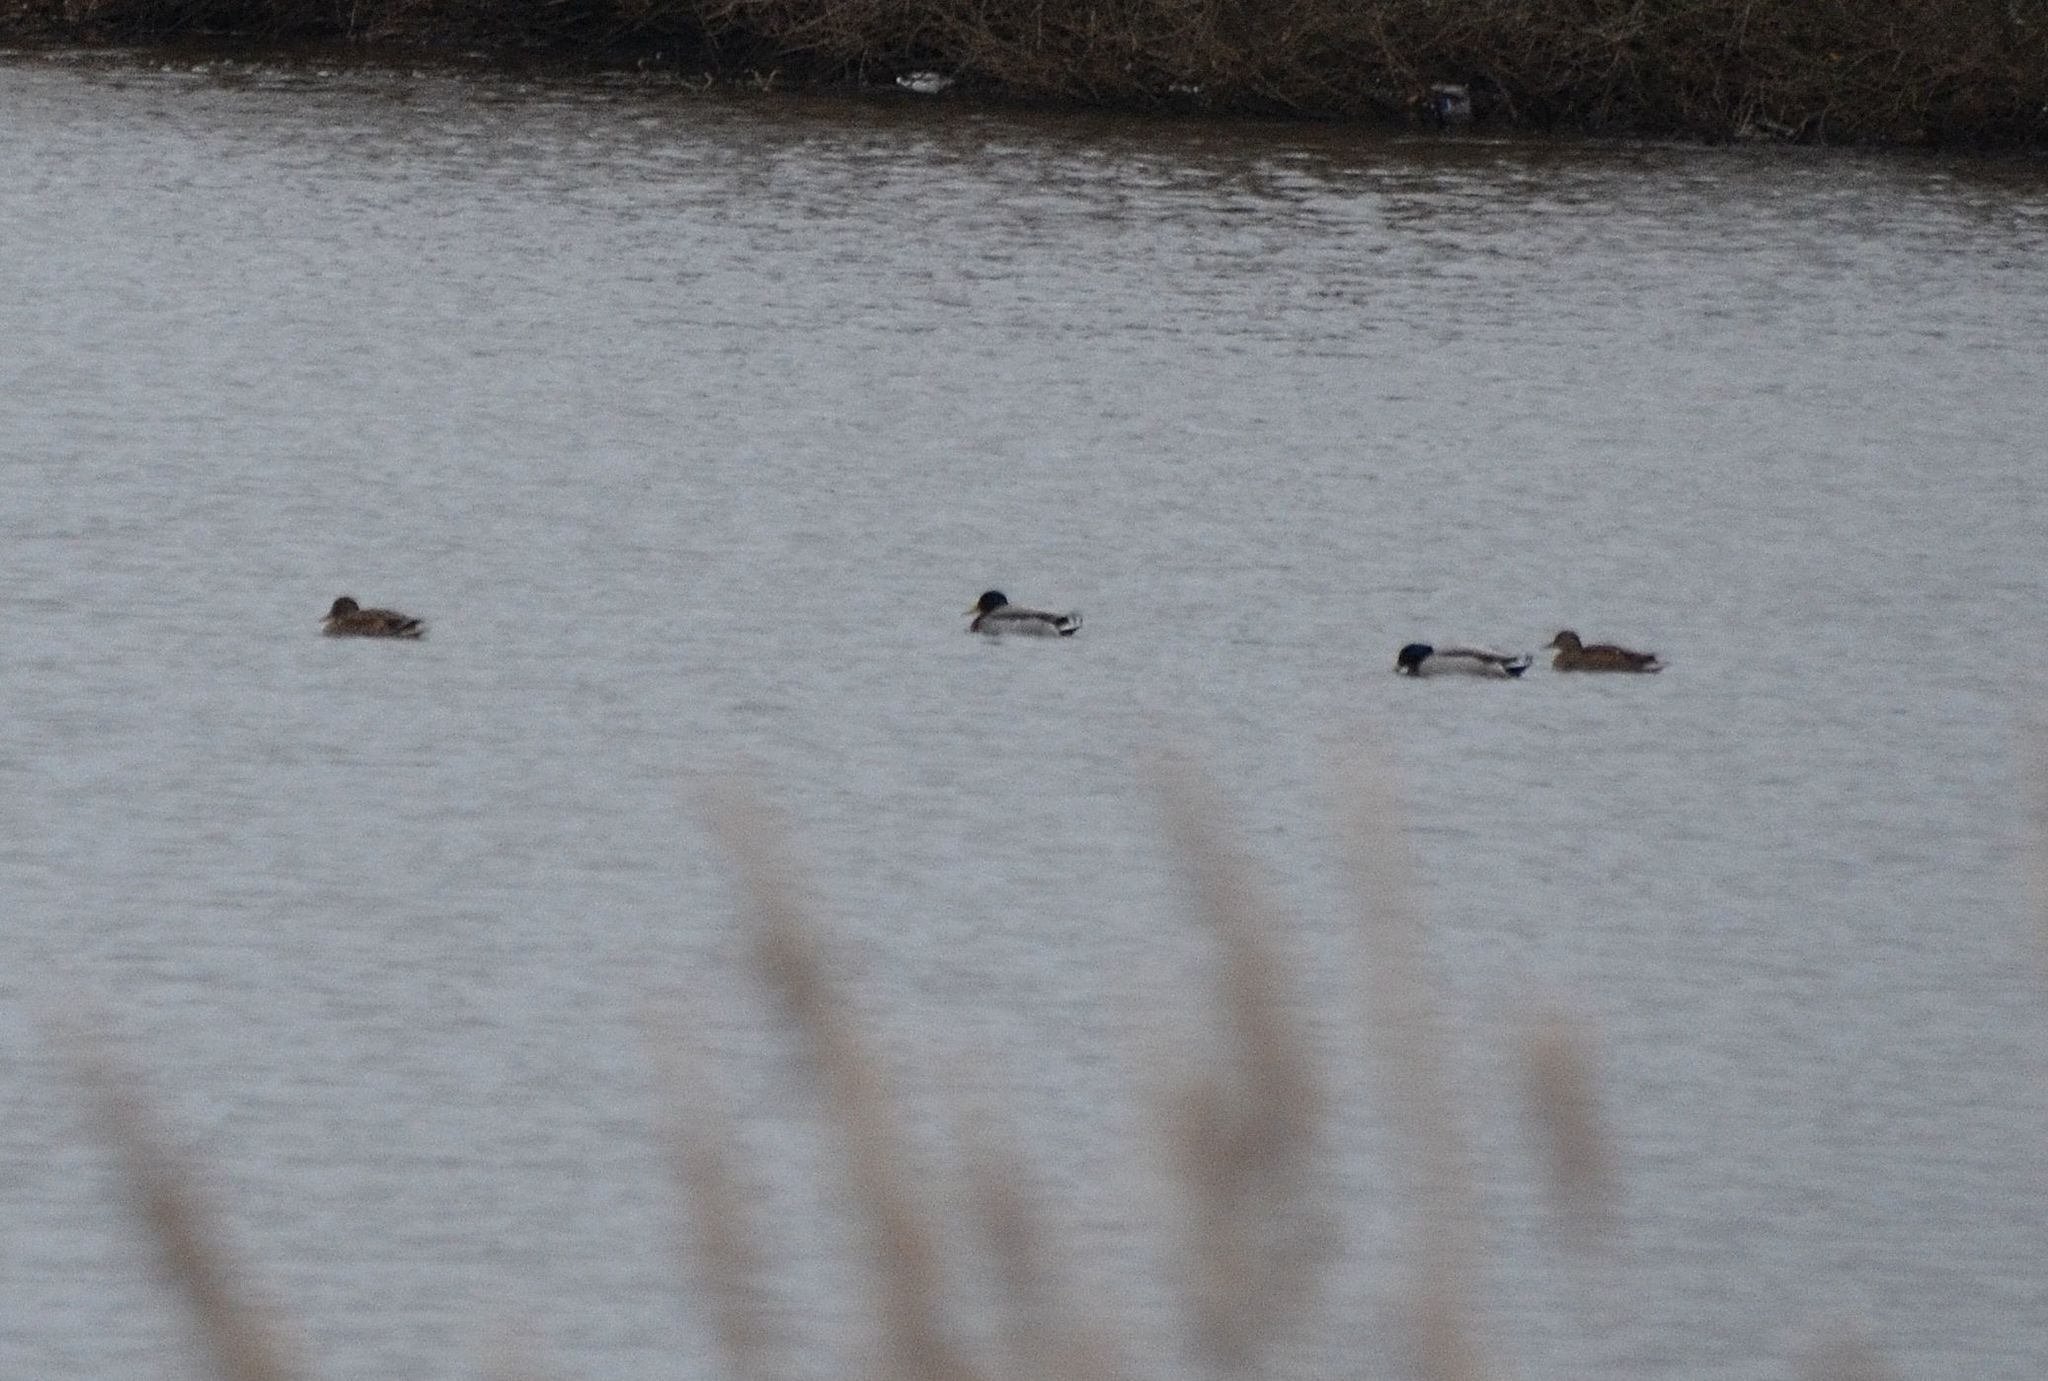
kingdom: Animalia
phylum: Chordata
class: Aves
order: Anseriformes
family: Anatidae
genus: Anas
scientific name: Anas platyrhynchos
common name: Mallard
